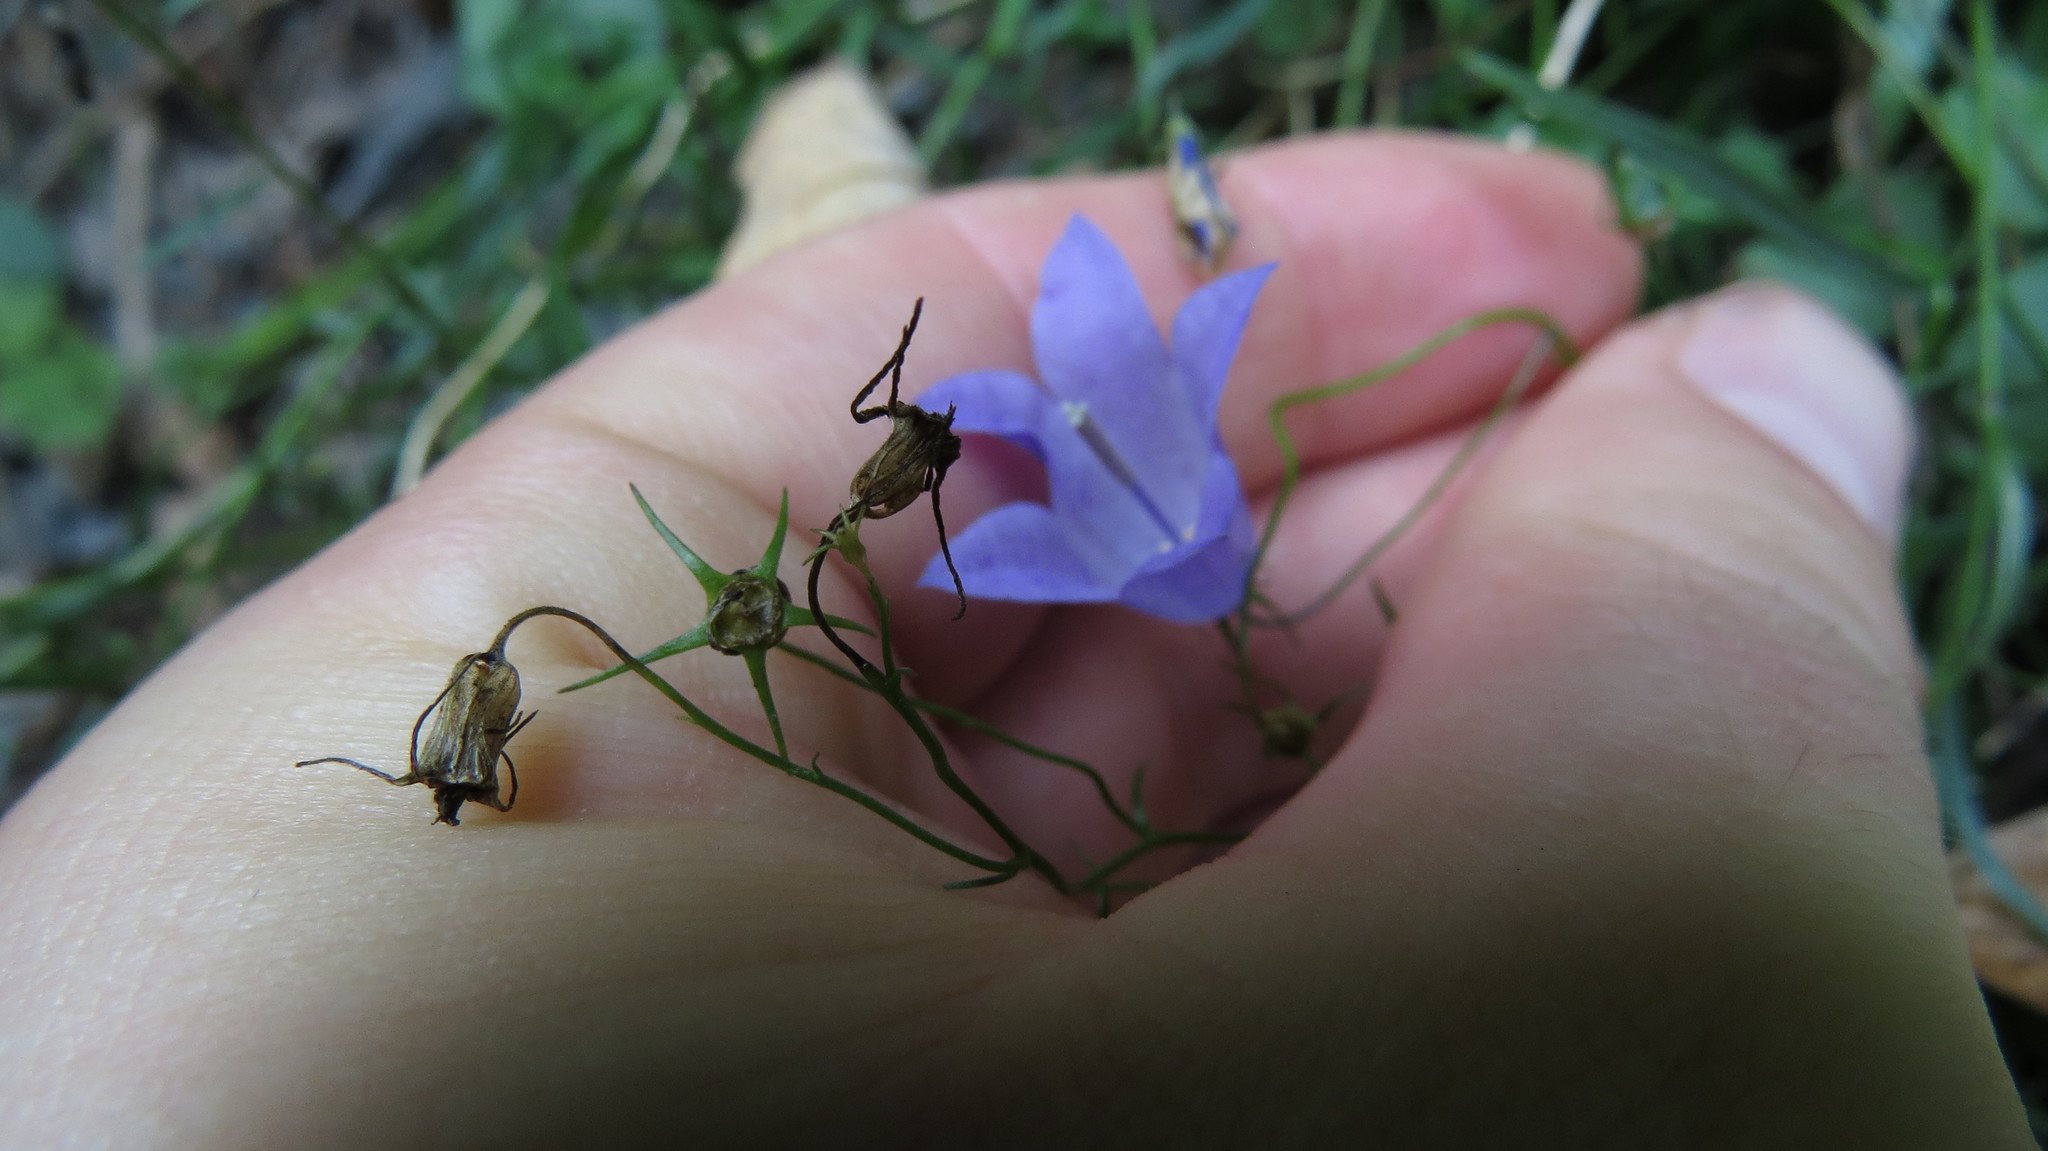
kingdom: Plantae
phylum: Tracheophyta
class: Magnoliopsida
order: Asterales
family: Campanulaceae
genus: Campanula
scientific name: Campanula intercedens
